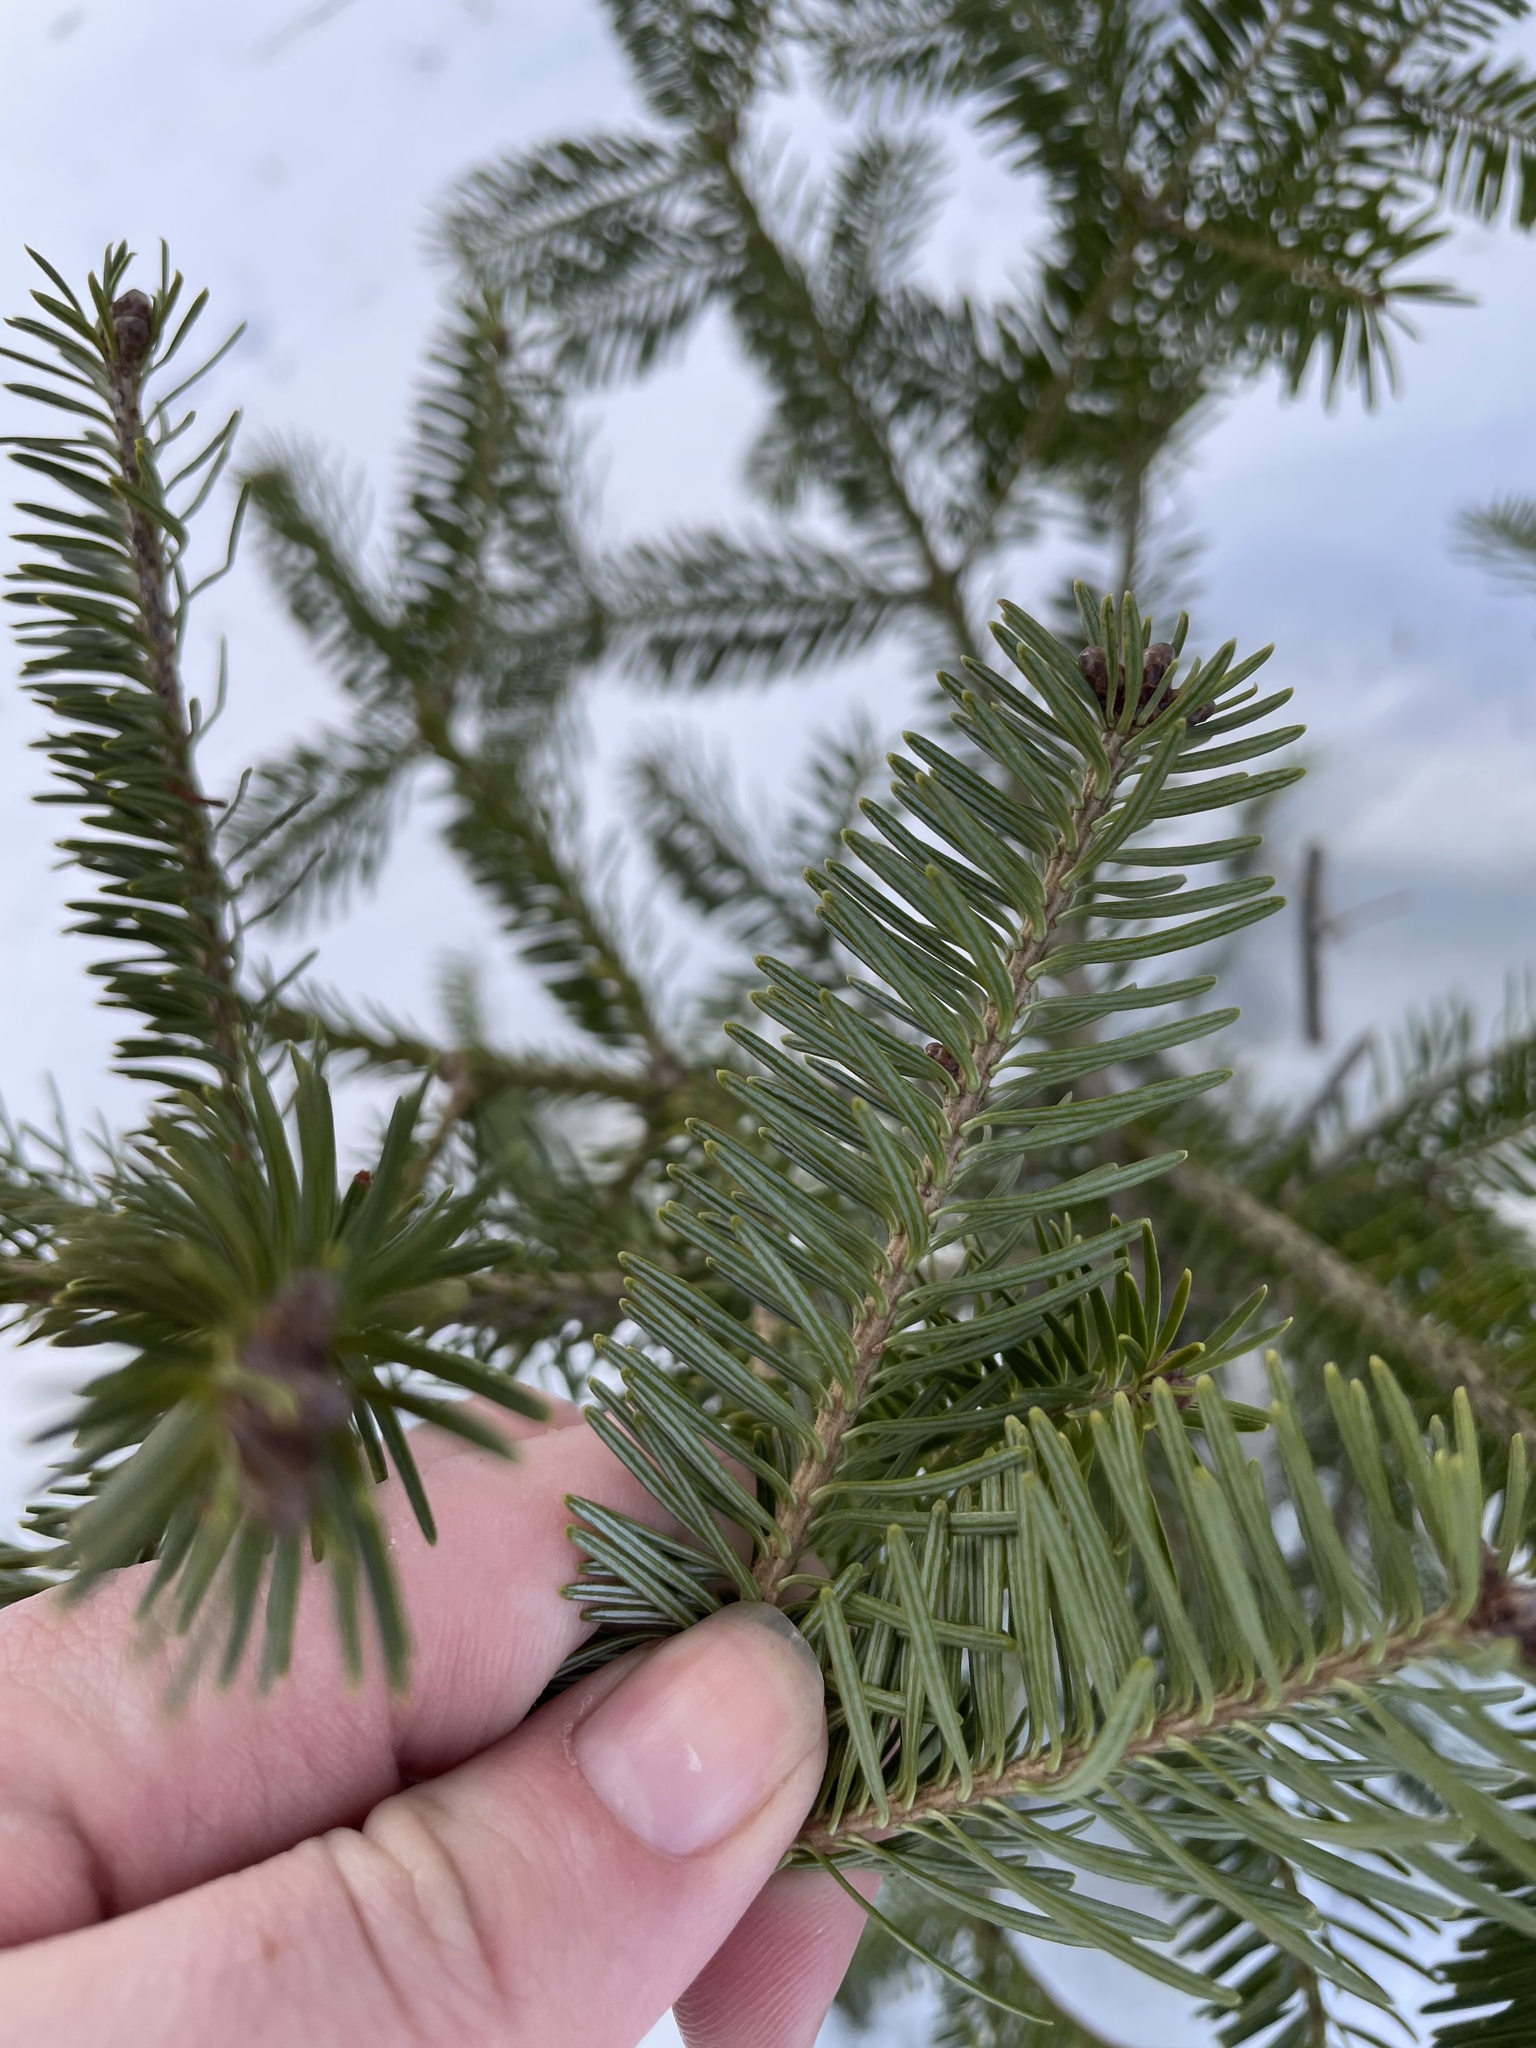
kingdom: Plantae
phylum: Tracheophyta
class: Pinopsida
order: Pinales
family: Pinaceae
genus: Abies
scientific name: Abies balsamea
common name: Balsam fir
